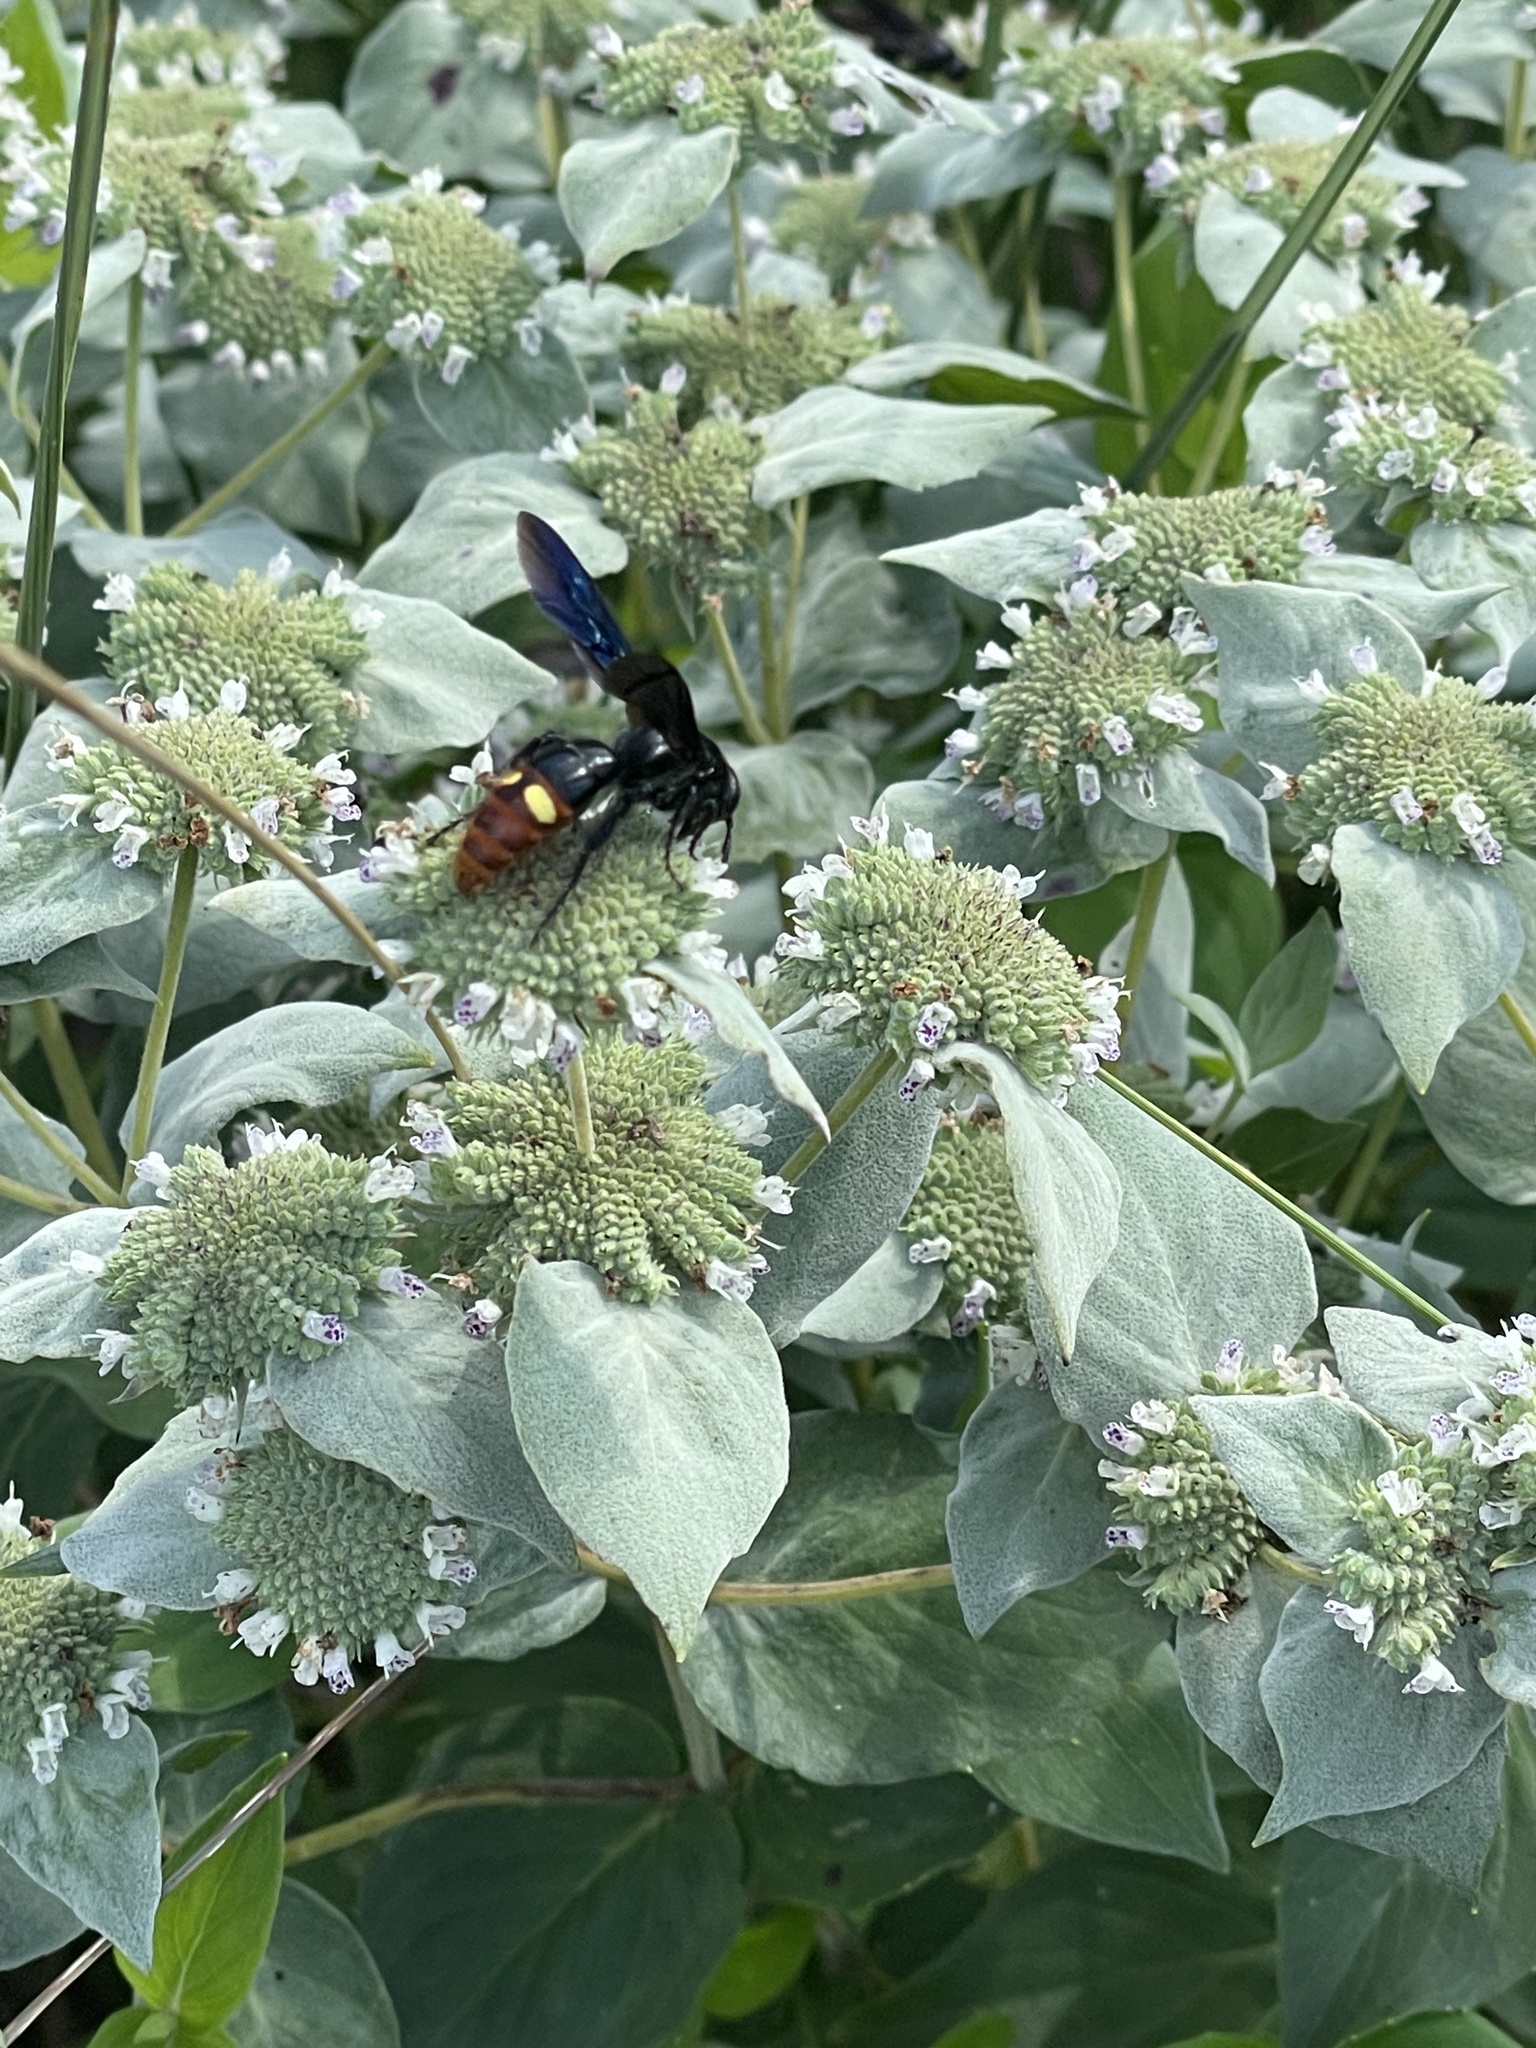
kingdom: Animalia
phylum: Arthropoda
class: Insecta
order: Hymenoptera
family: Scoliidae
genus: Scolia
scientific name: Scolia dubia
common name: Blue-winged scoliid wasp
